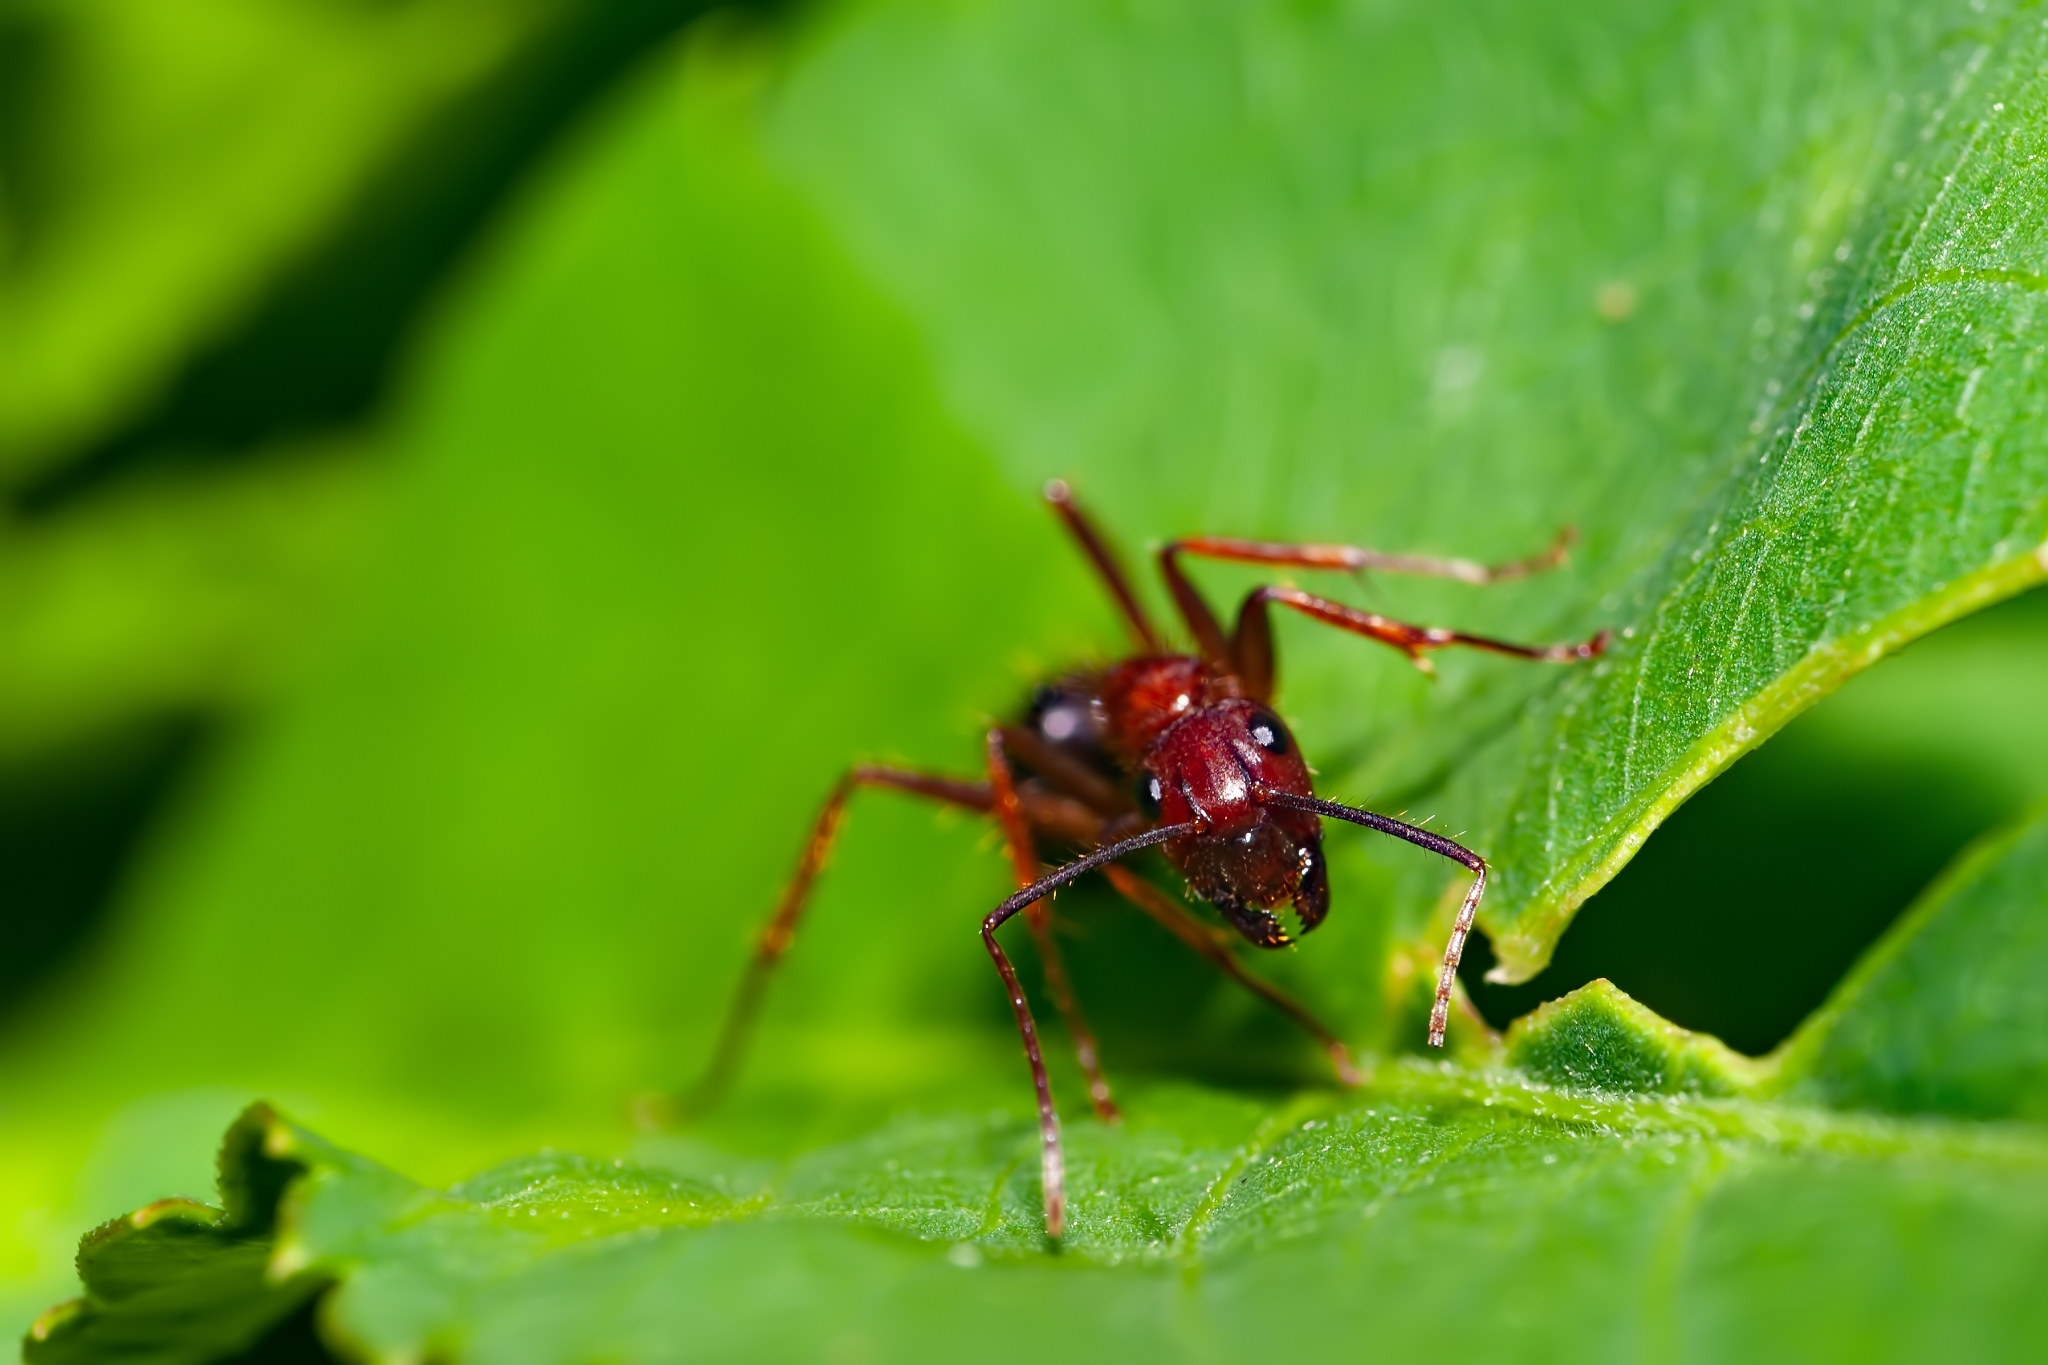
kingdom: Animalia
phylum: Arthropoda
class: Insecta
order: Hymenoptera
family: Formicidae
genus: Camponotus
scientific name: Camponotus floridanus
